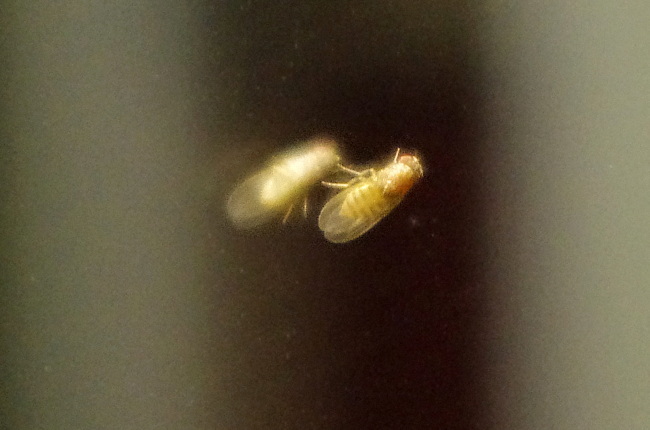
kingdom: Animalia
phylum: Arthropoda
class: Insecta
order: Diptera
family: Drosophilidae
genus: Drosophila
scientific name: Drosophila
